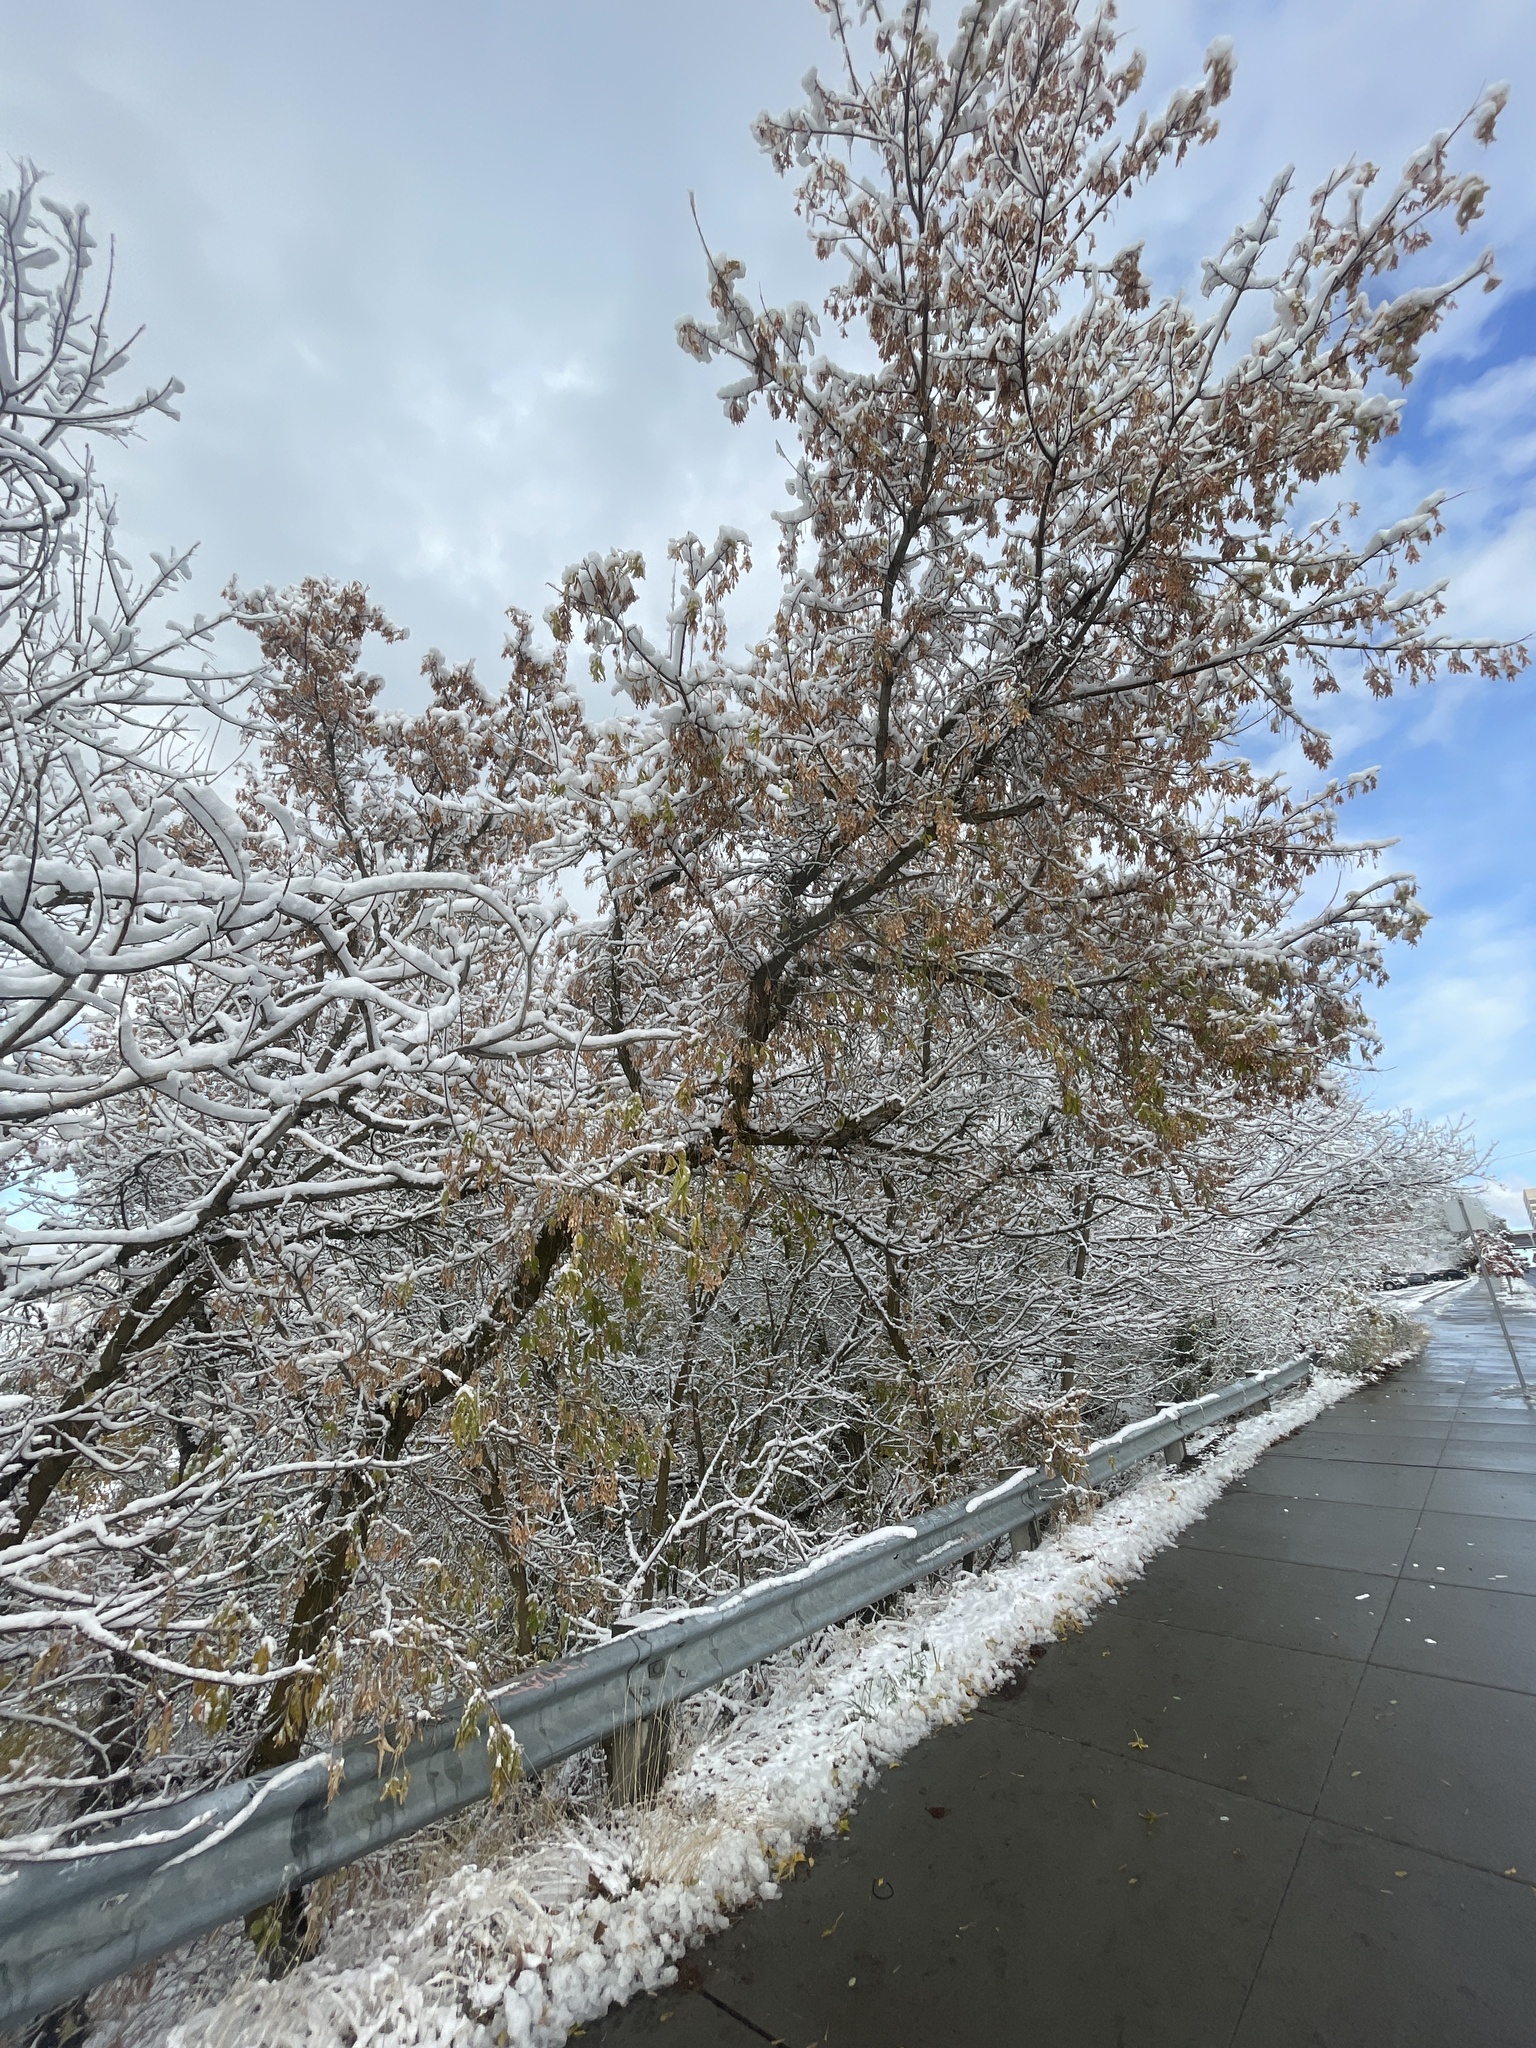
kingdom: Plantae
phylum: Tracheophyta
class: Magnoliopsida
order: Sapindales
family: Sapindaceae
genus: Acer
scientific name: Acer negundo
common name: Ashleaf maple
